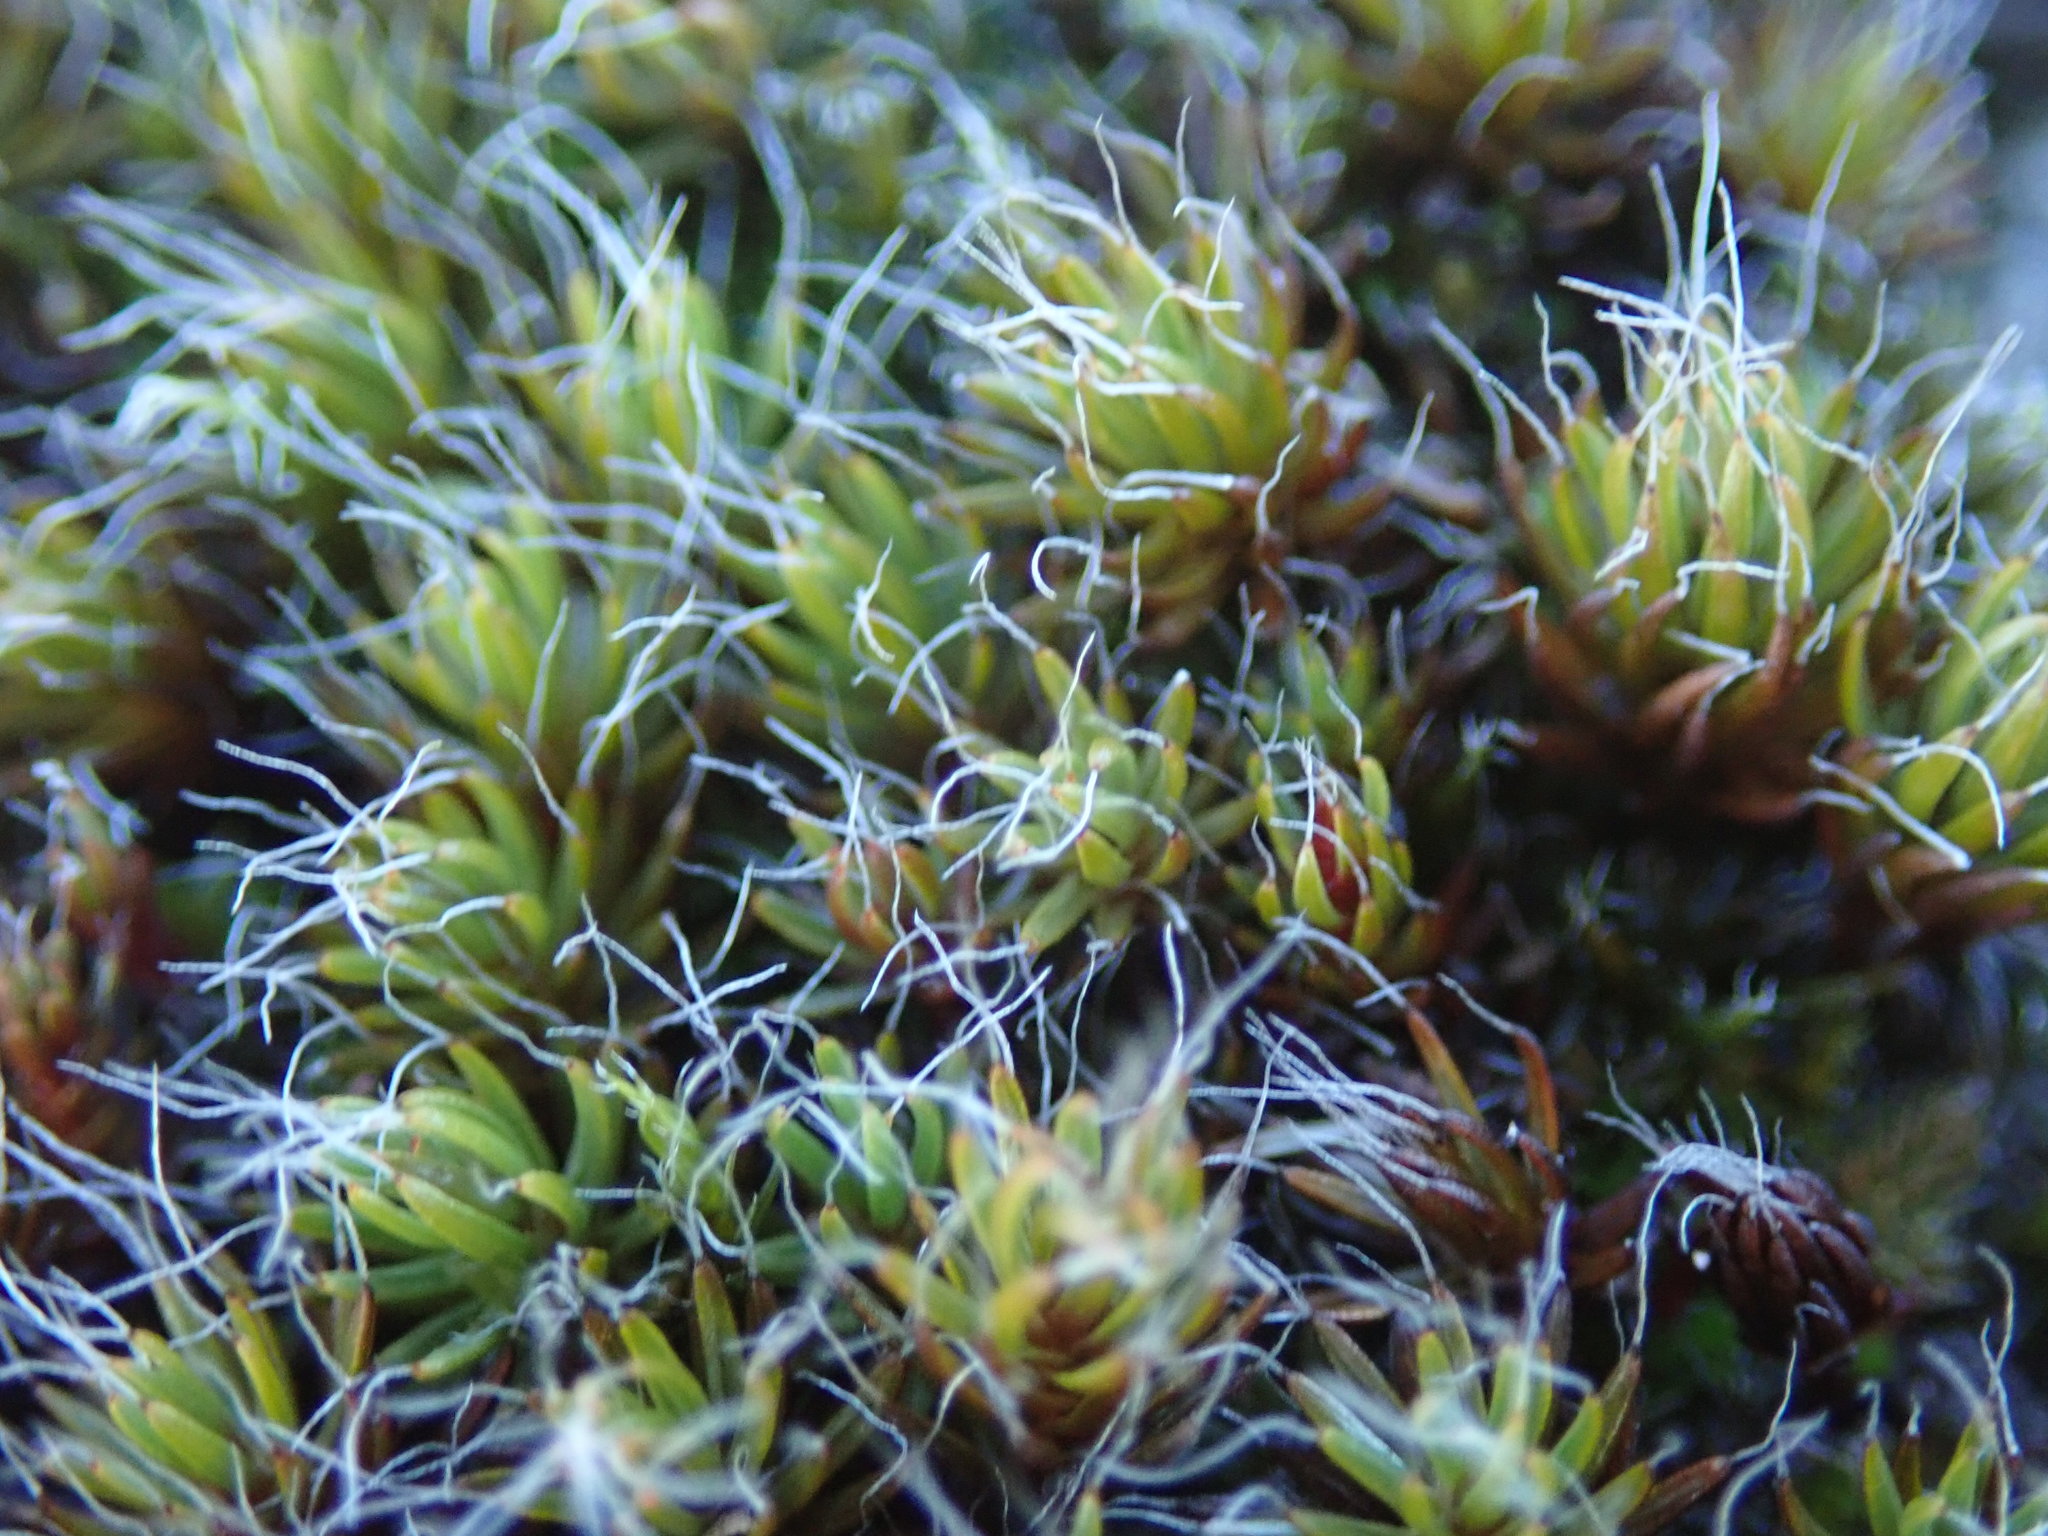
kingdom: Plantae
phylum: Bryophyta
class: Polytrichopsida
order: Polytrichales
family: Polytrichaceae
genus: Polytrichum
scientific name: Polytrichum piliferum
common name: Bristly haircap
